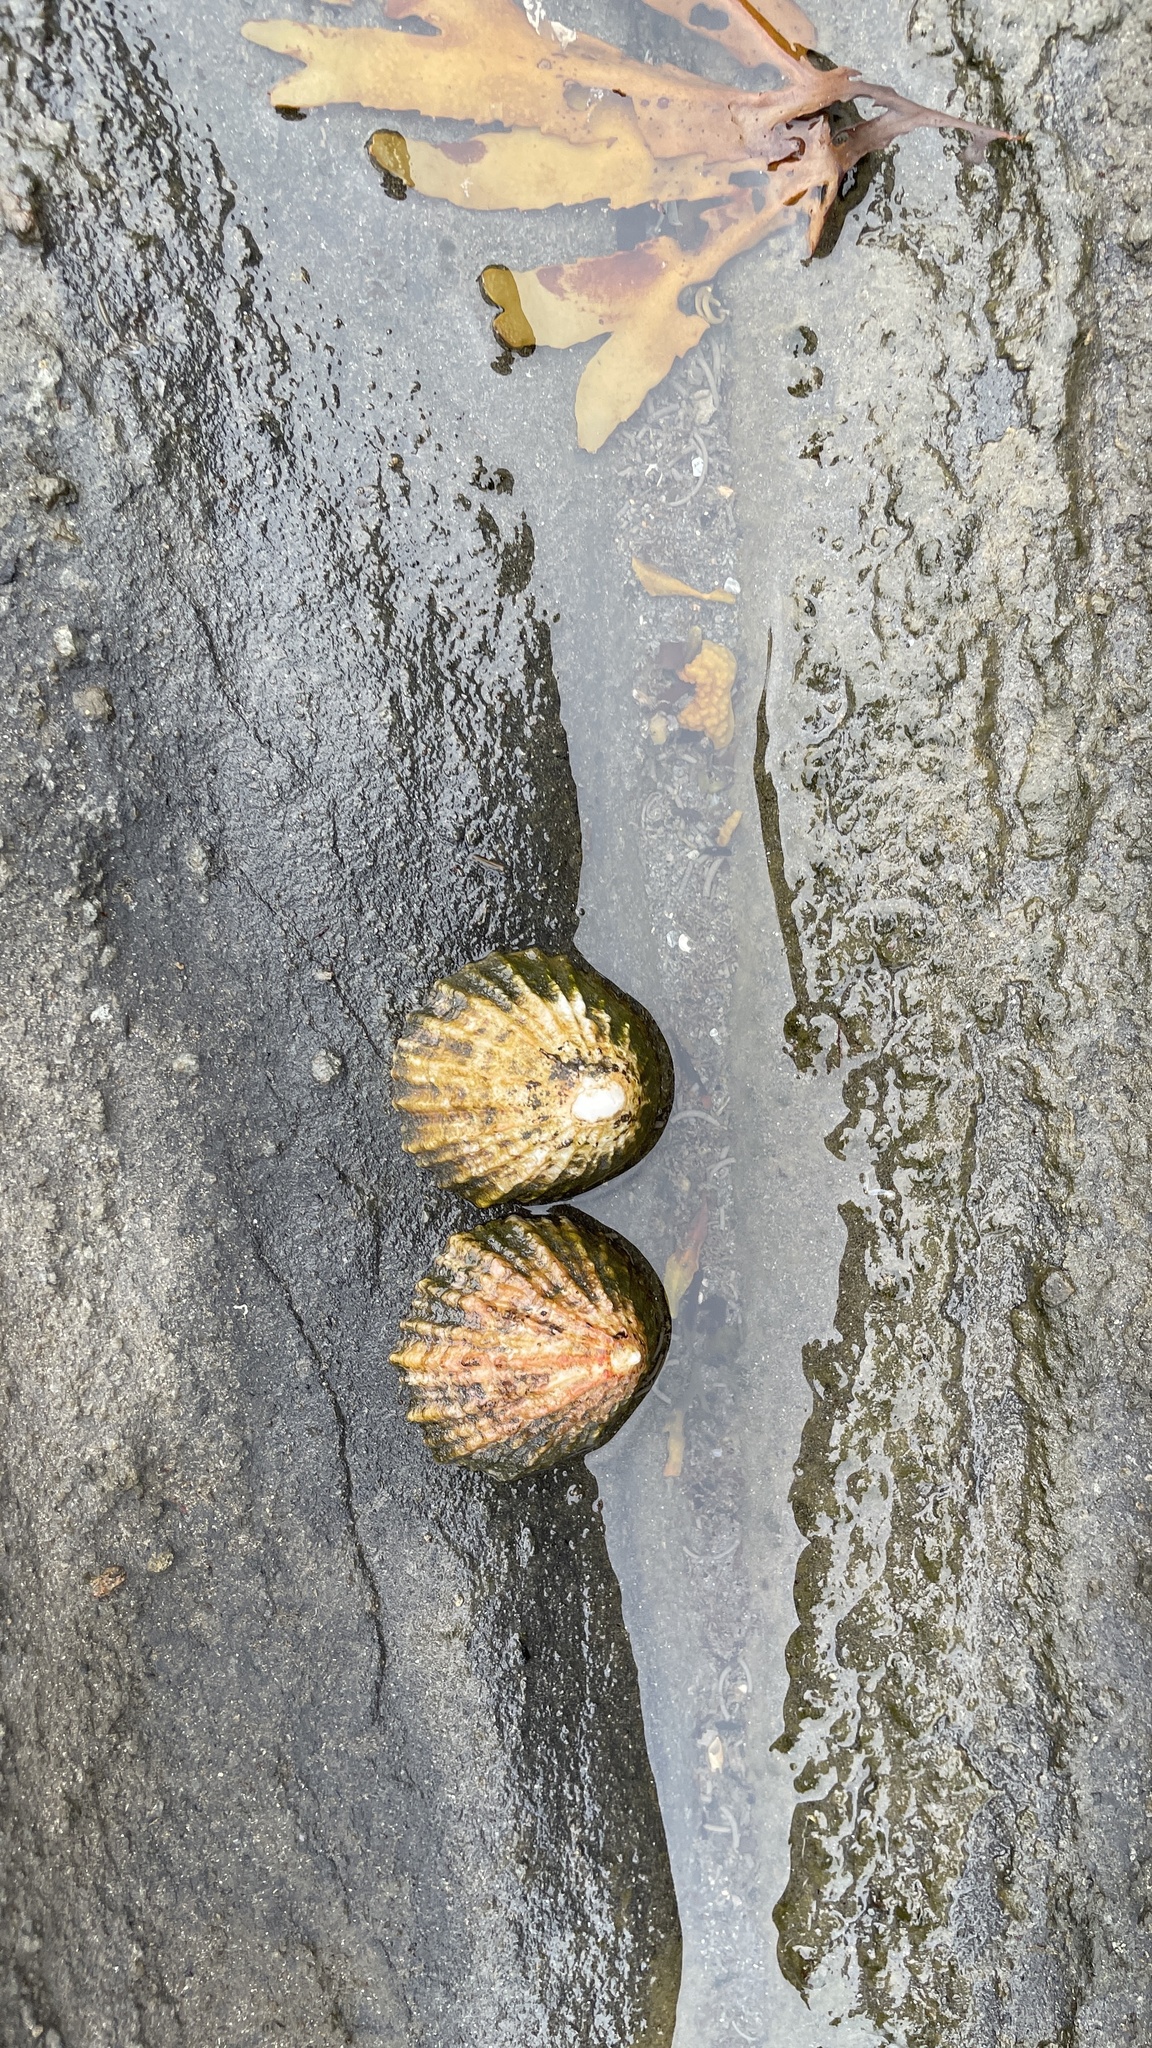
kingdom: Animalia
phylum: Mollusca
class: Gastropoda
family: Patellidae
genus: Patella
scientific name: Patella vulgata
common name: Common limpet
